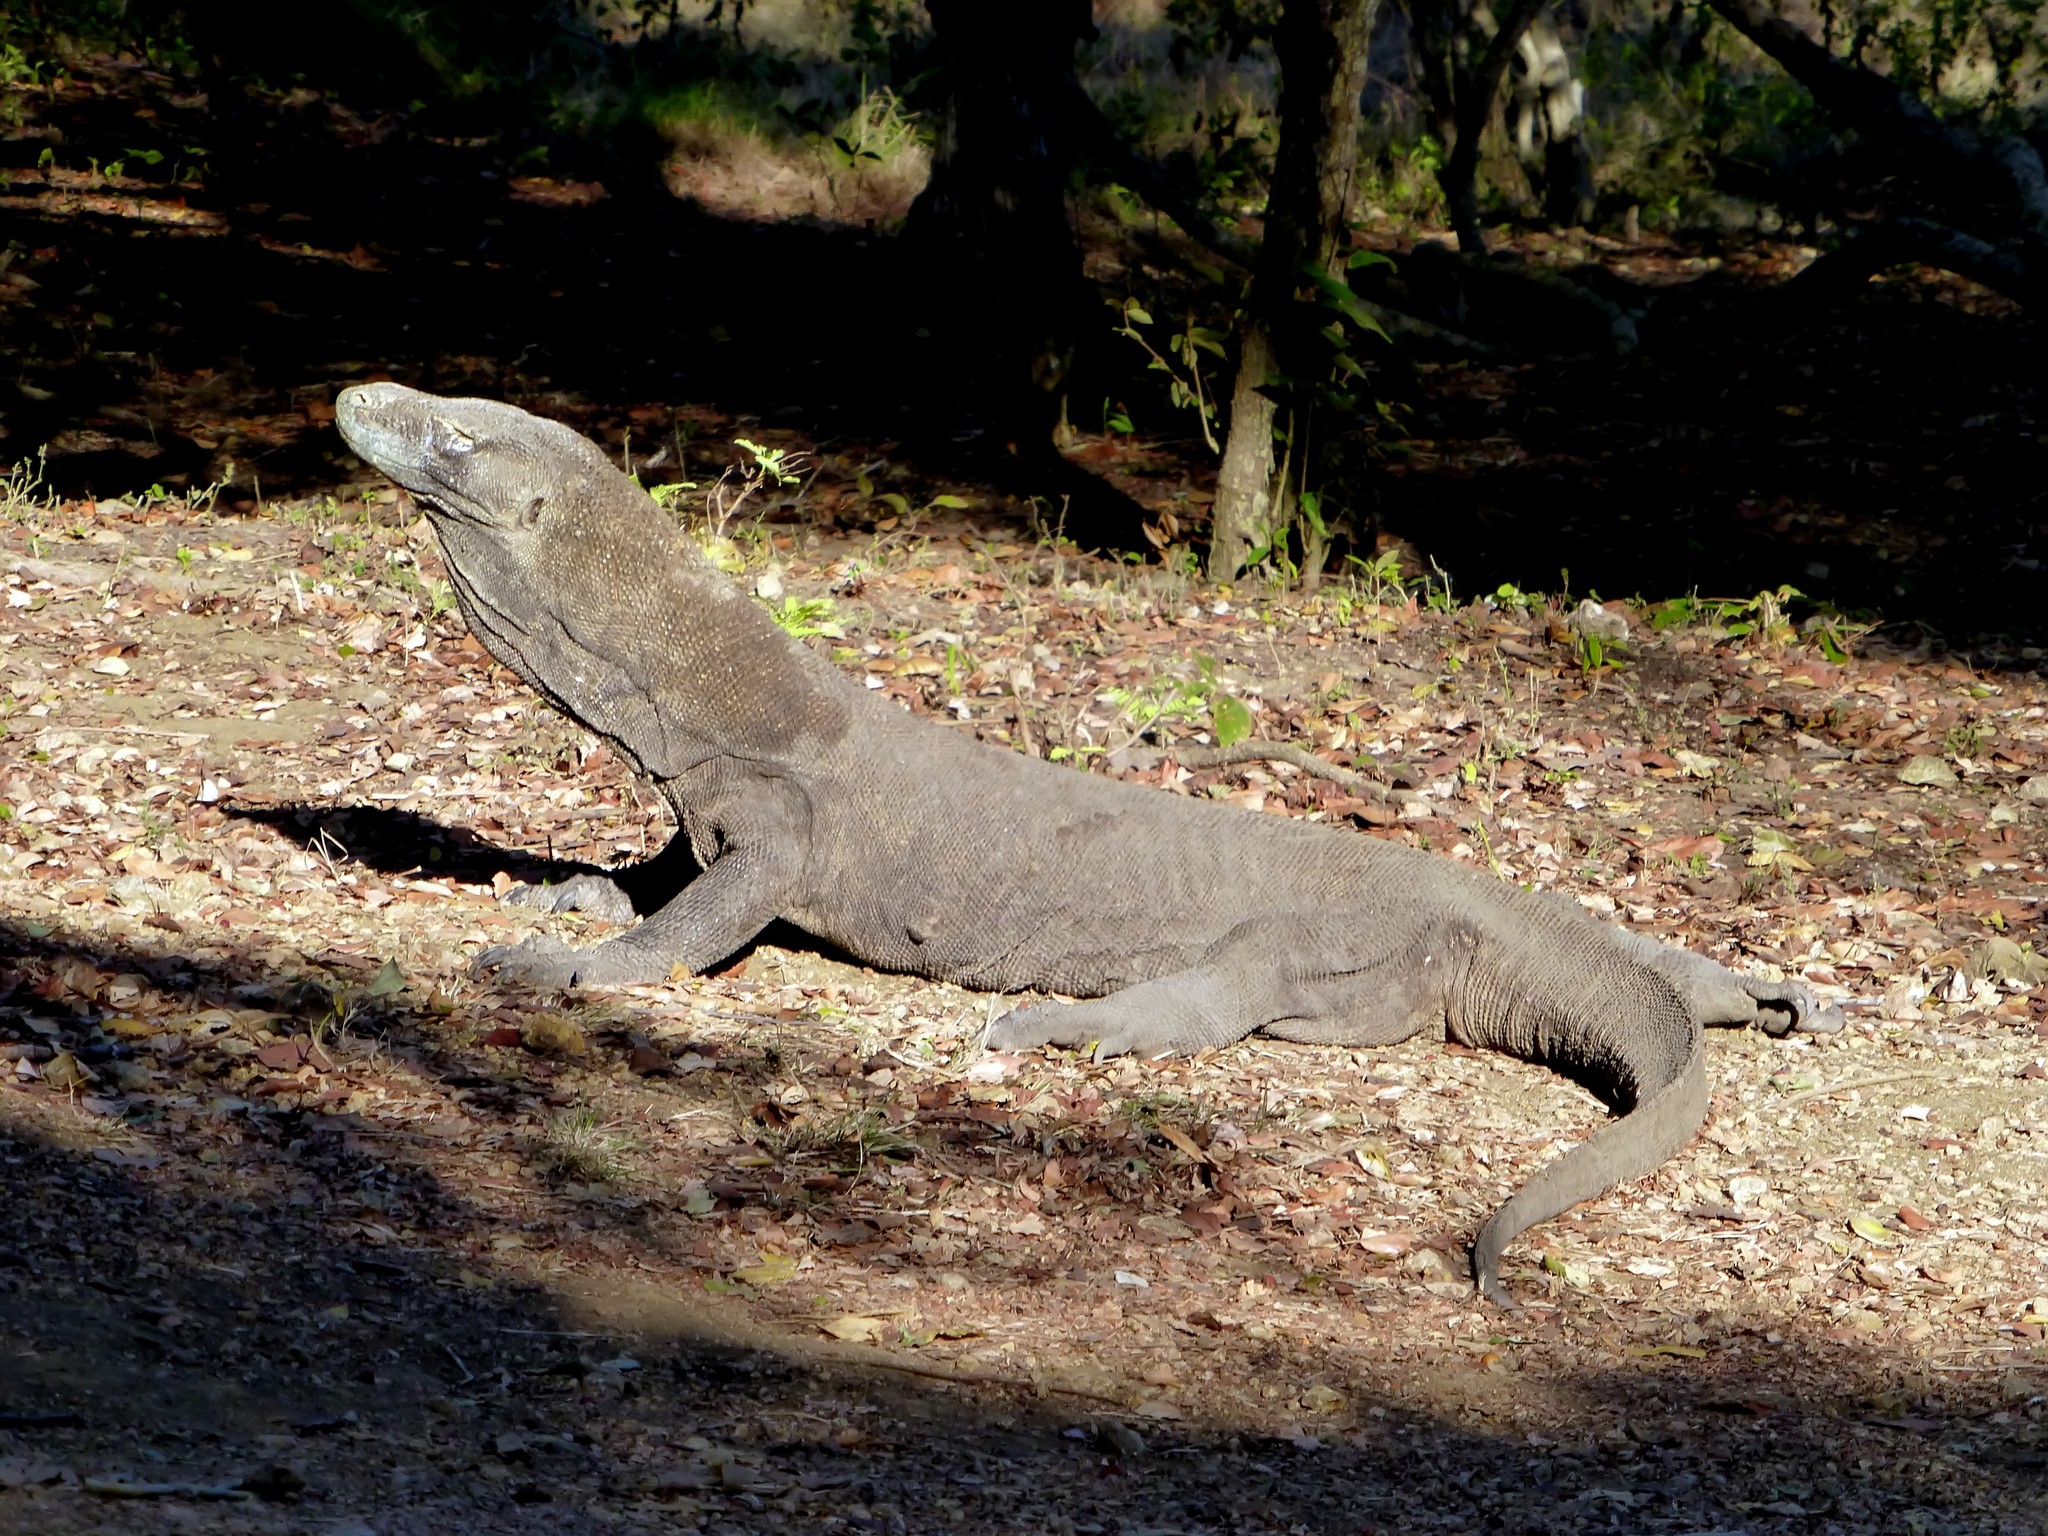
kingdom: Animalia
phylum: Chordata
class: Squamata
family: Varanidae
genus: Varanus
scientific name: Varanus komodoensis
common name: Komodo dragon
